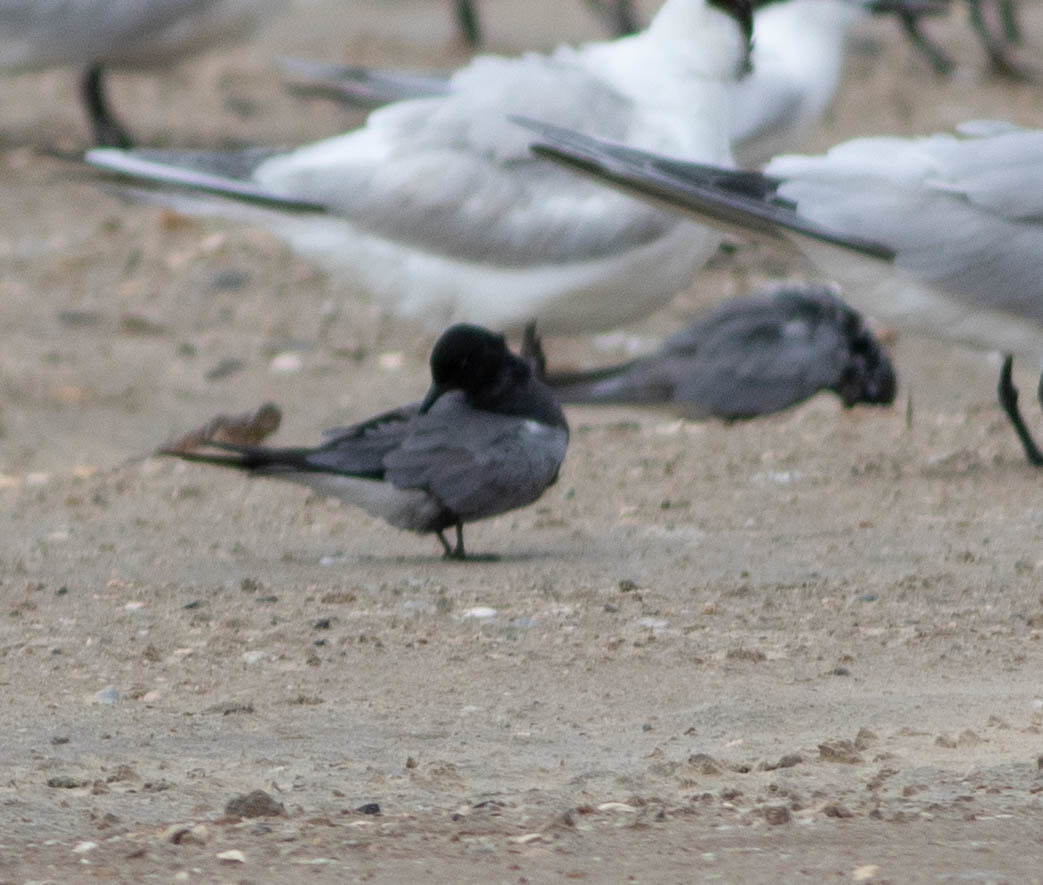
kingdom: Animalia
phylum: Chordata
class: Aves
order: Charadriiformes
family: Laridae
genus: Chlidonias
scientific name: Chlidonias niger
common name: Black tern
